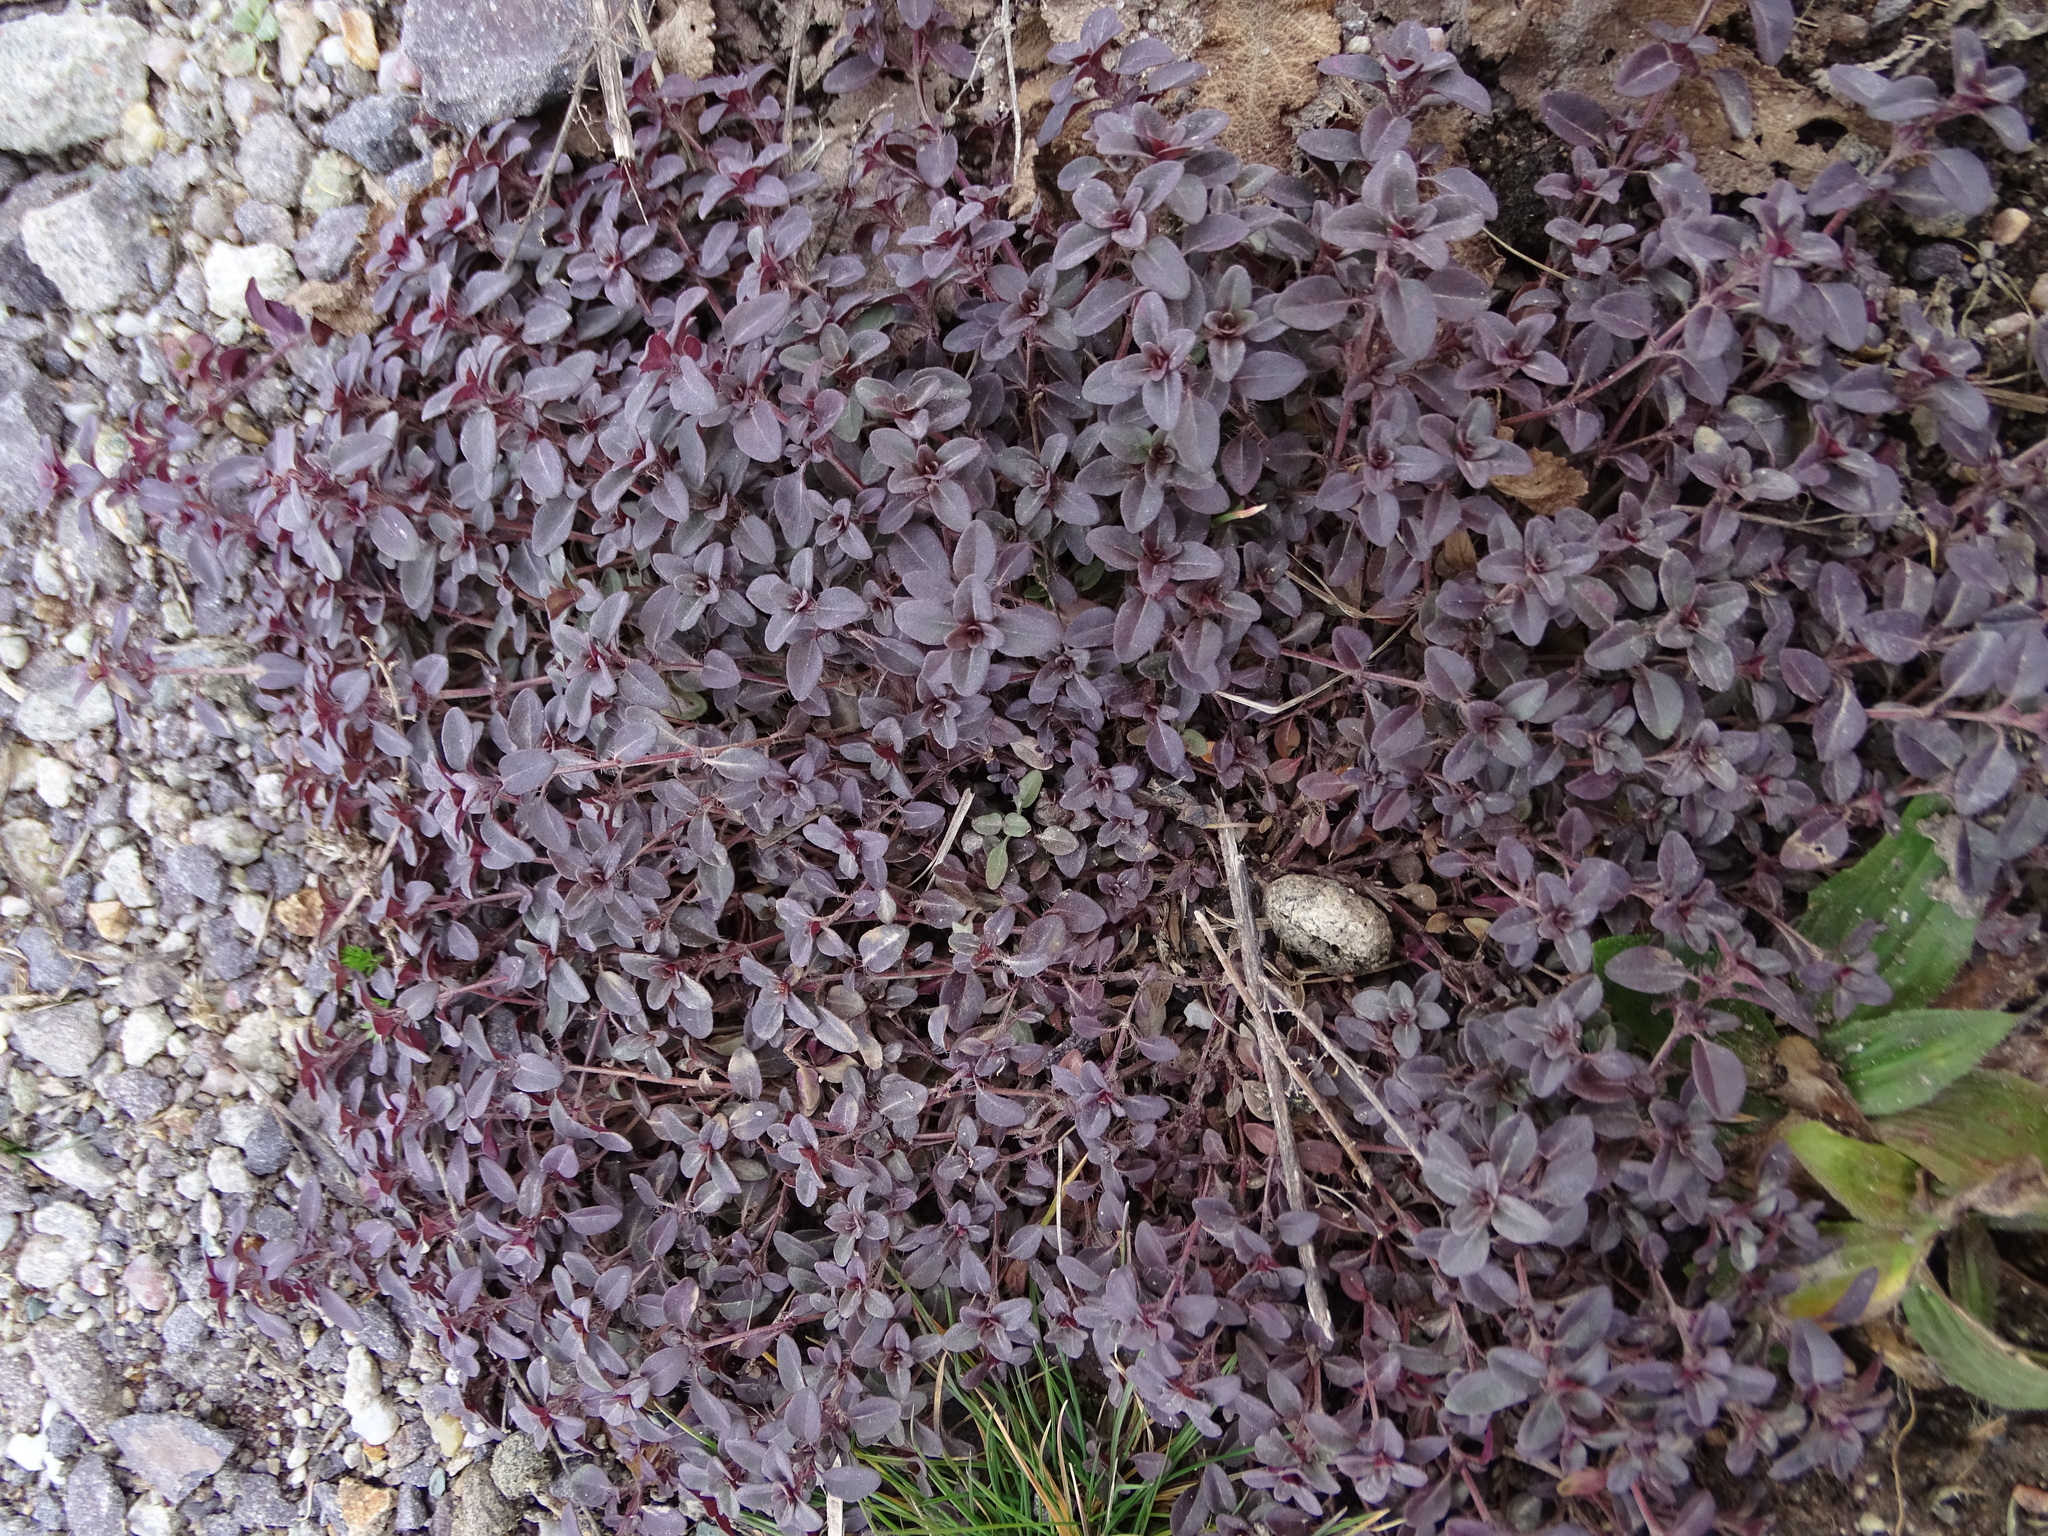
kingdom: Plantae
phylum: Tracheophyta
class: Magnoliopsida
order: Lamiales
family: Lamiaceae
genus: Thymus
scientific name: Thymus pulegioides
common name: Large thyme
